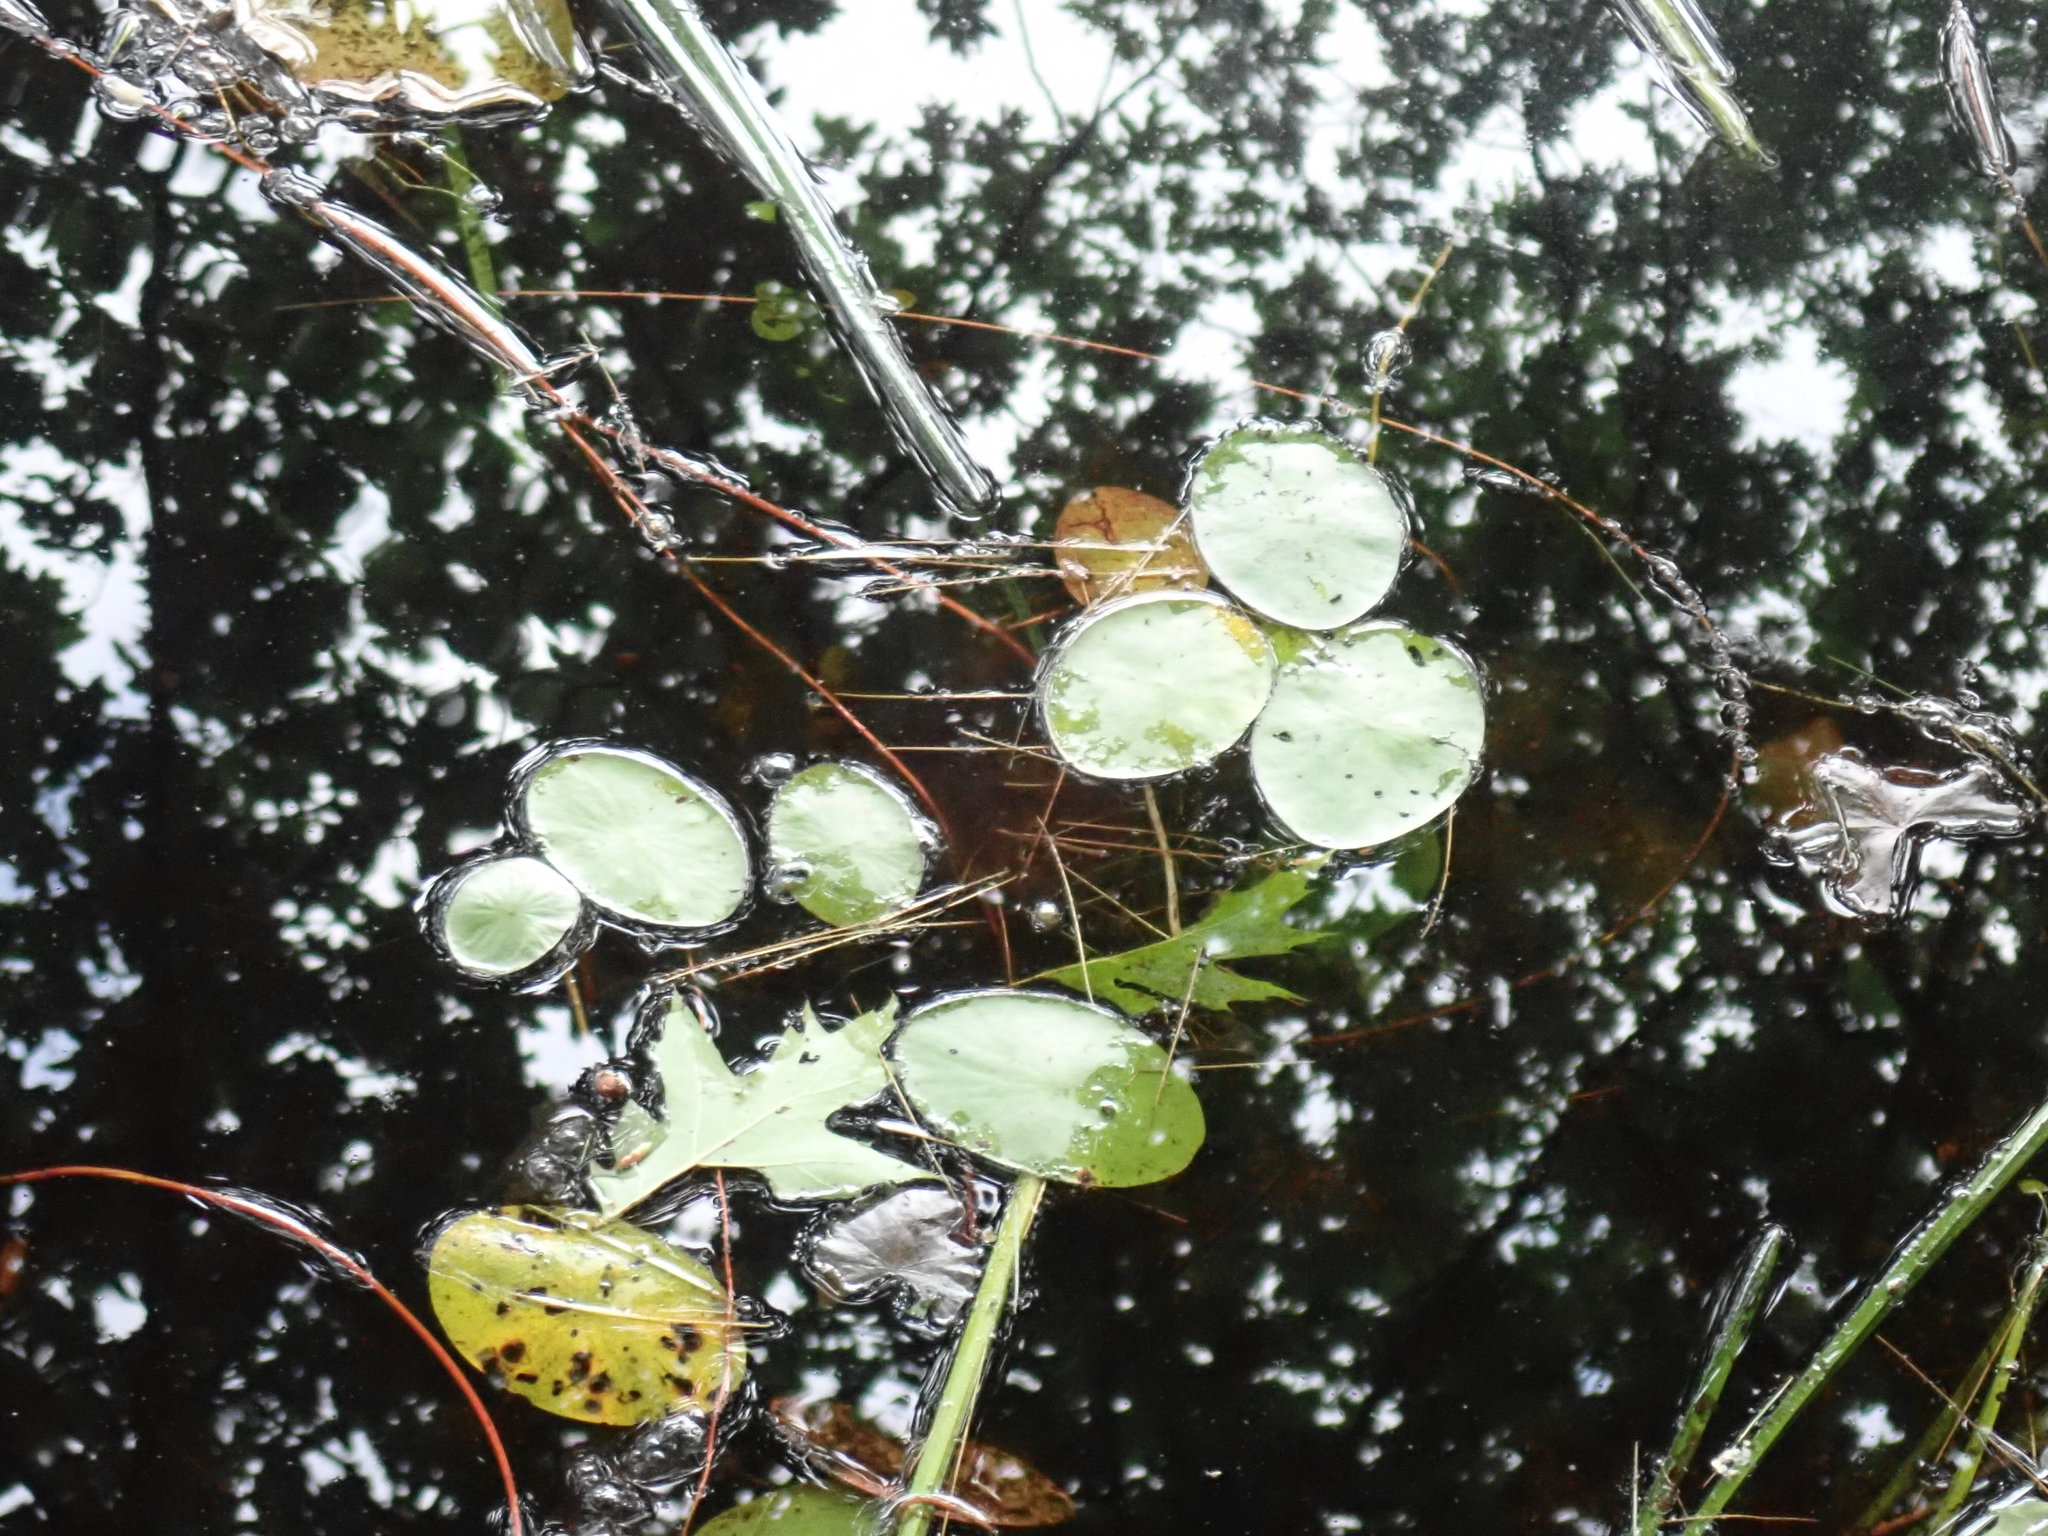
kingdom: Plantae
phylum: Tracheophyta
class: Magnoliopsida
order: Nymphaeales
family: Cabombaceae
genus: Brasenia
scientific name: Brasenia schreberi
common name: Water-shield
